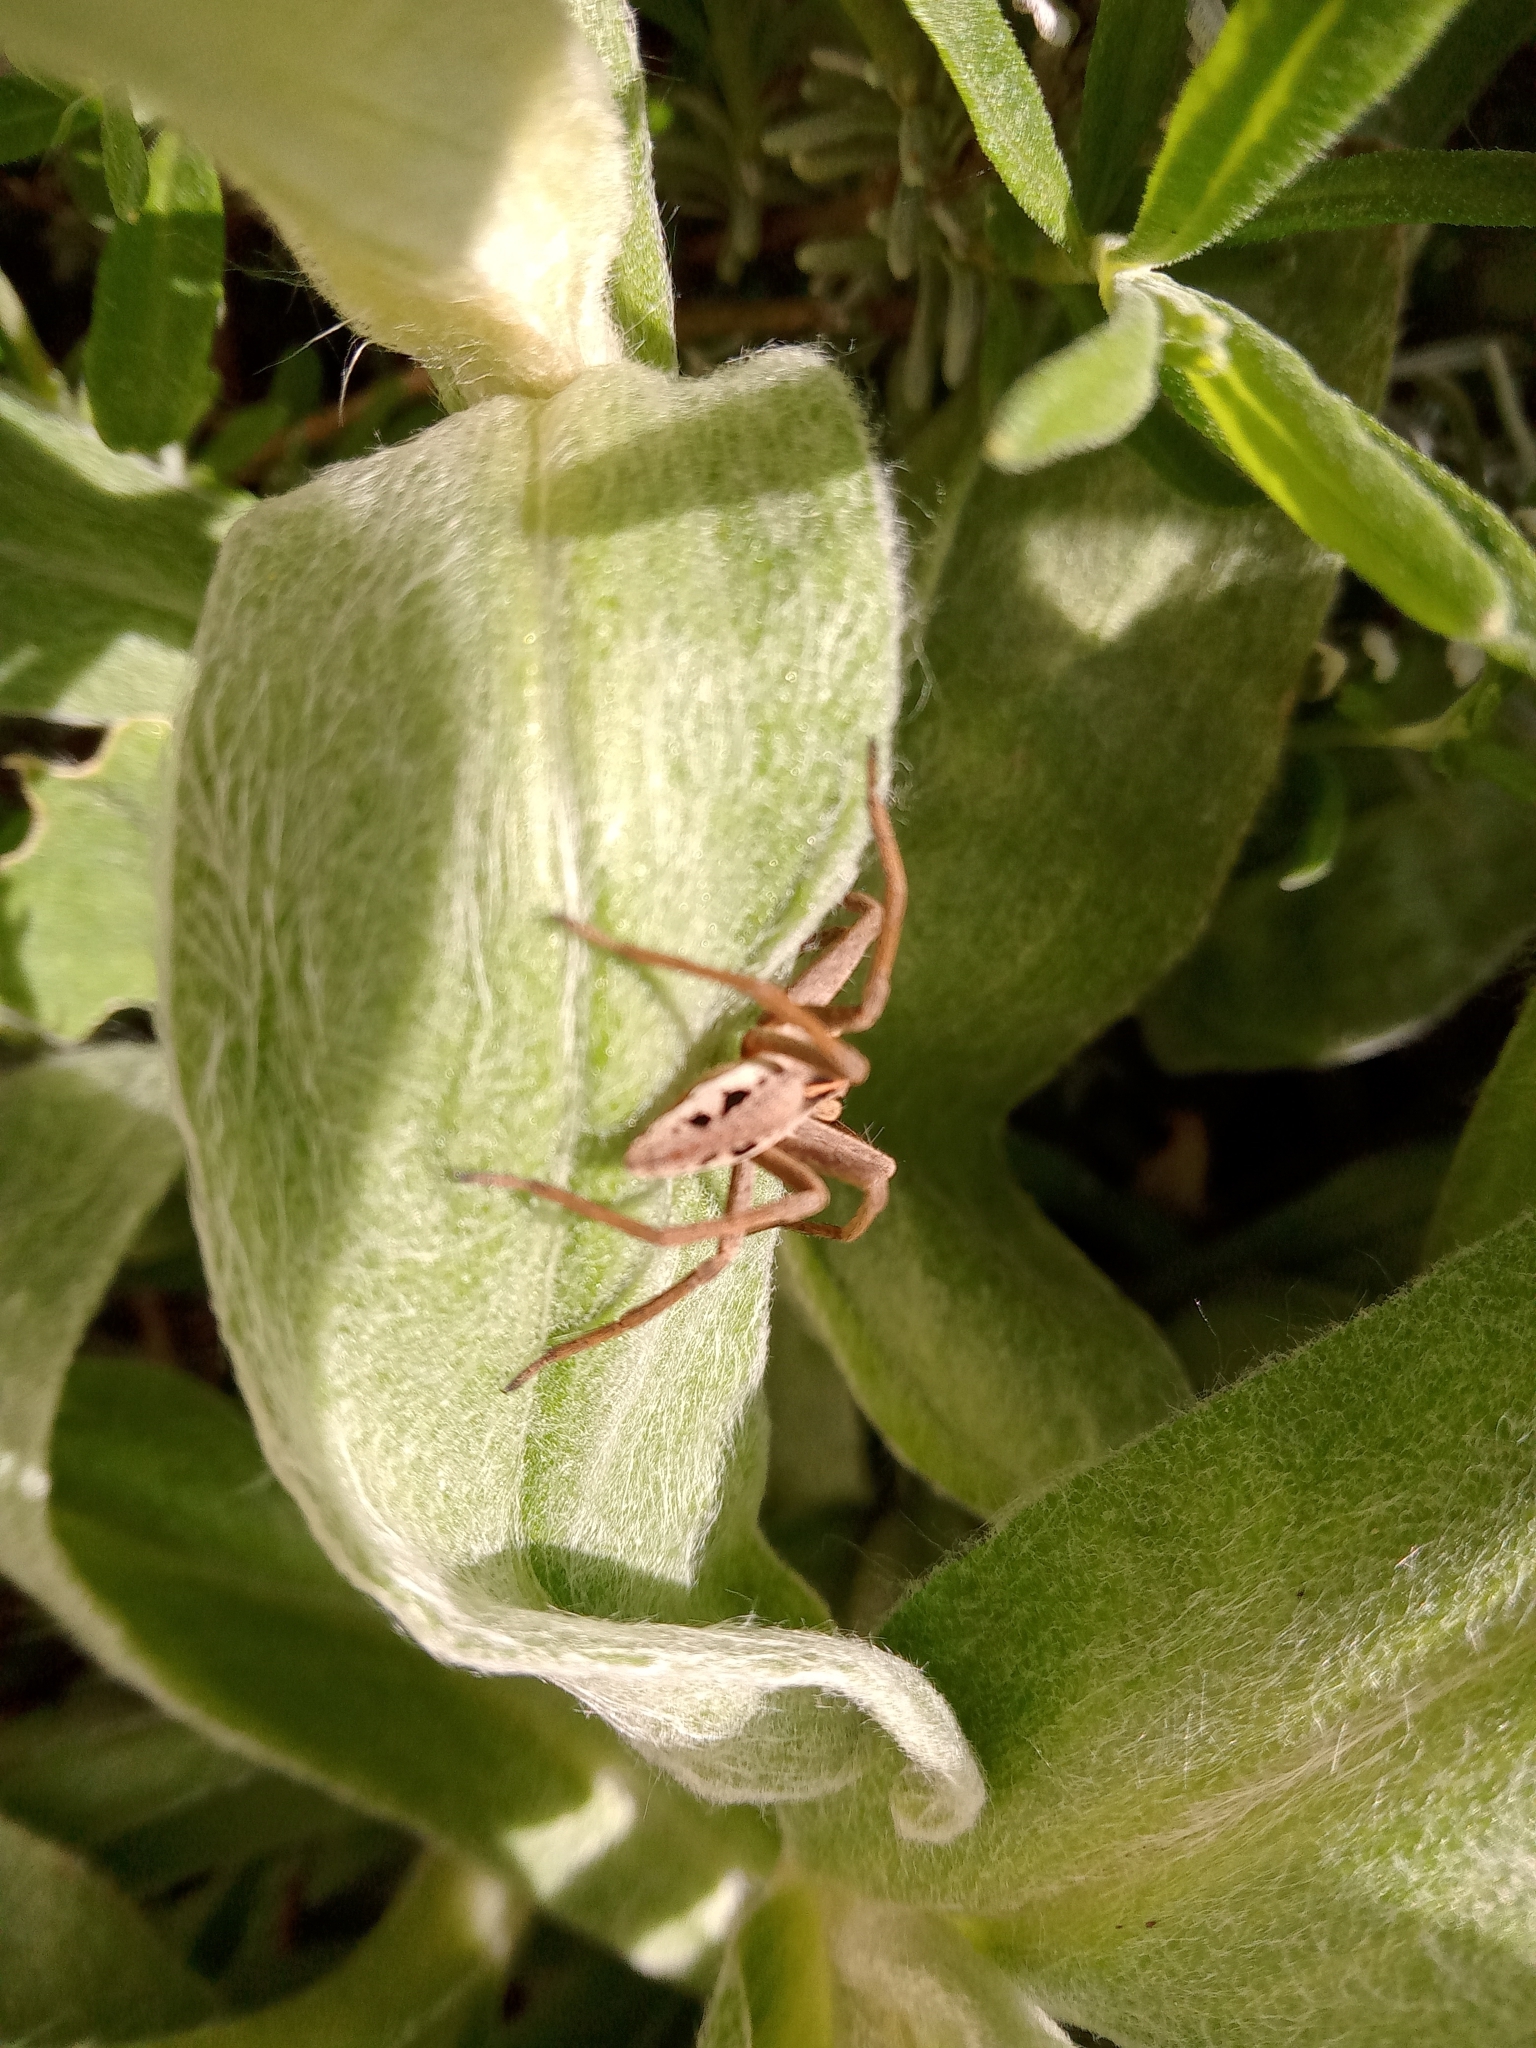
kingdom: Animalia
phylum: Arthropoda
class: Arachnida
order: Araneae
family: Pisauridae
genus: Pisaura
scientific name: Pisaura mirabilis
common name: Tent spider
